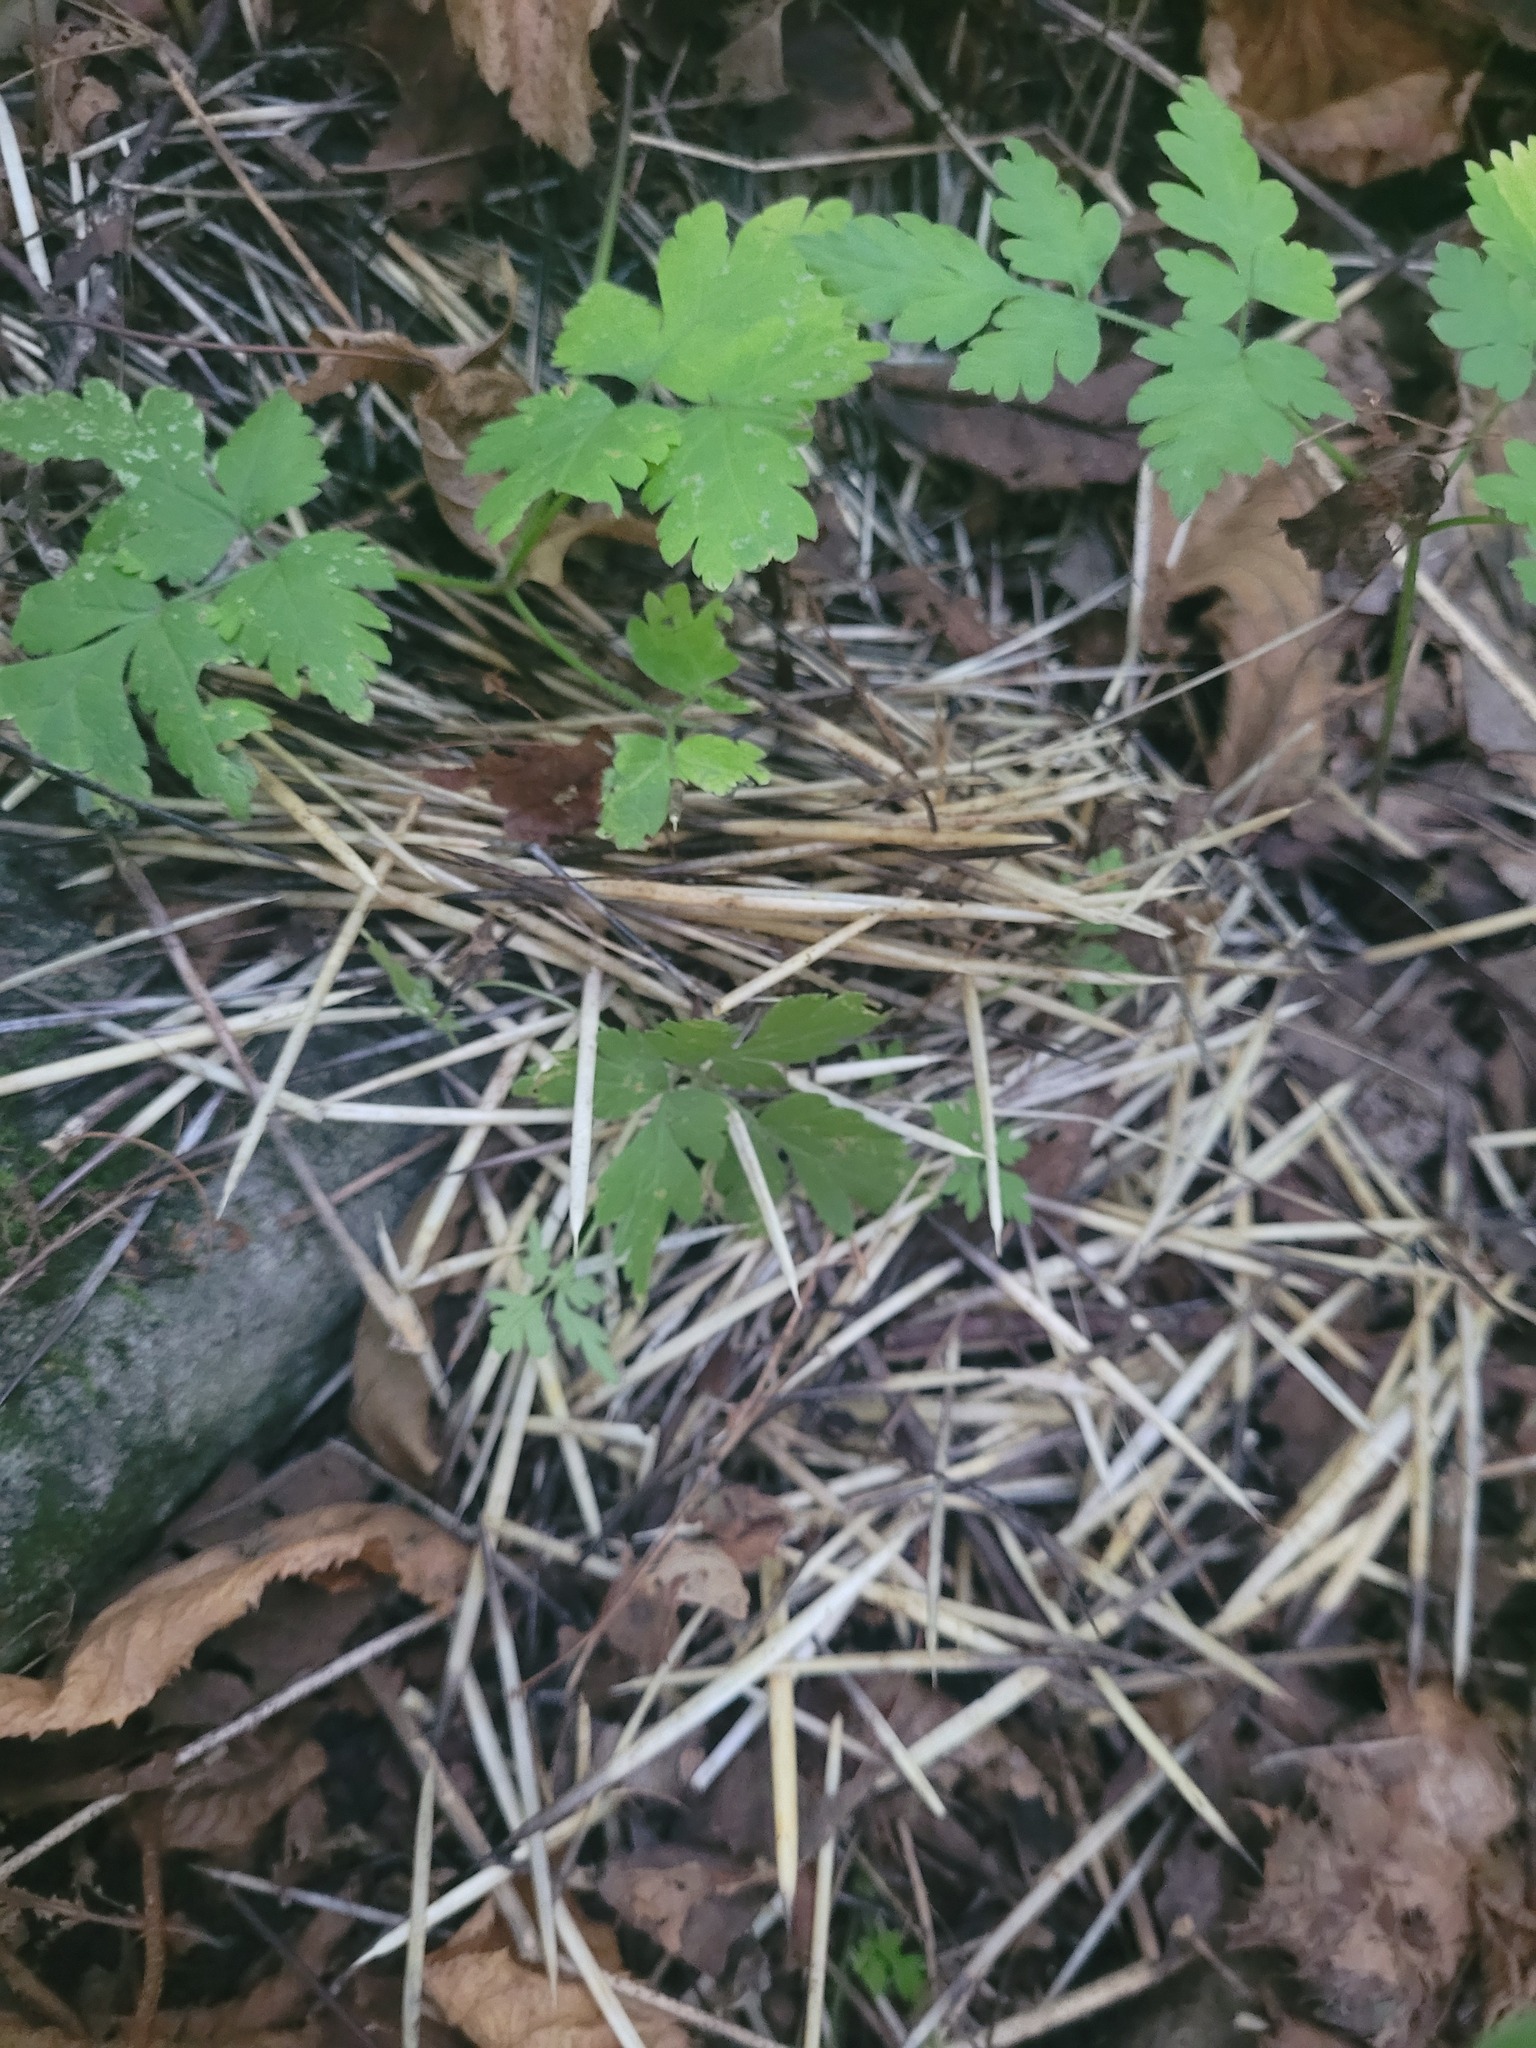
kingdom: Animalia
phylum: Chordata
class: Mammalia
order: Rodentia
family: Erethizontidae
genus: Erethizon
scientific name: Erethizon dorsatus
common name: North american porcupine
